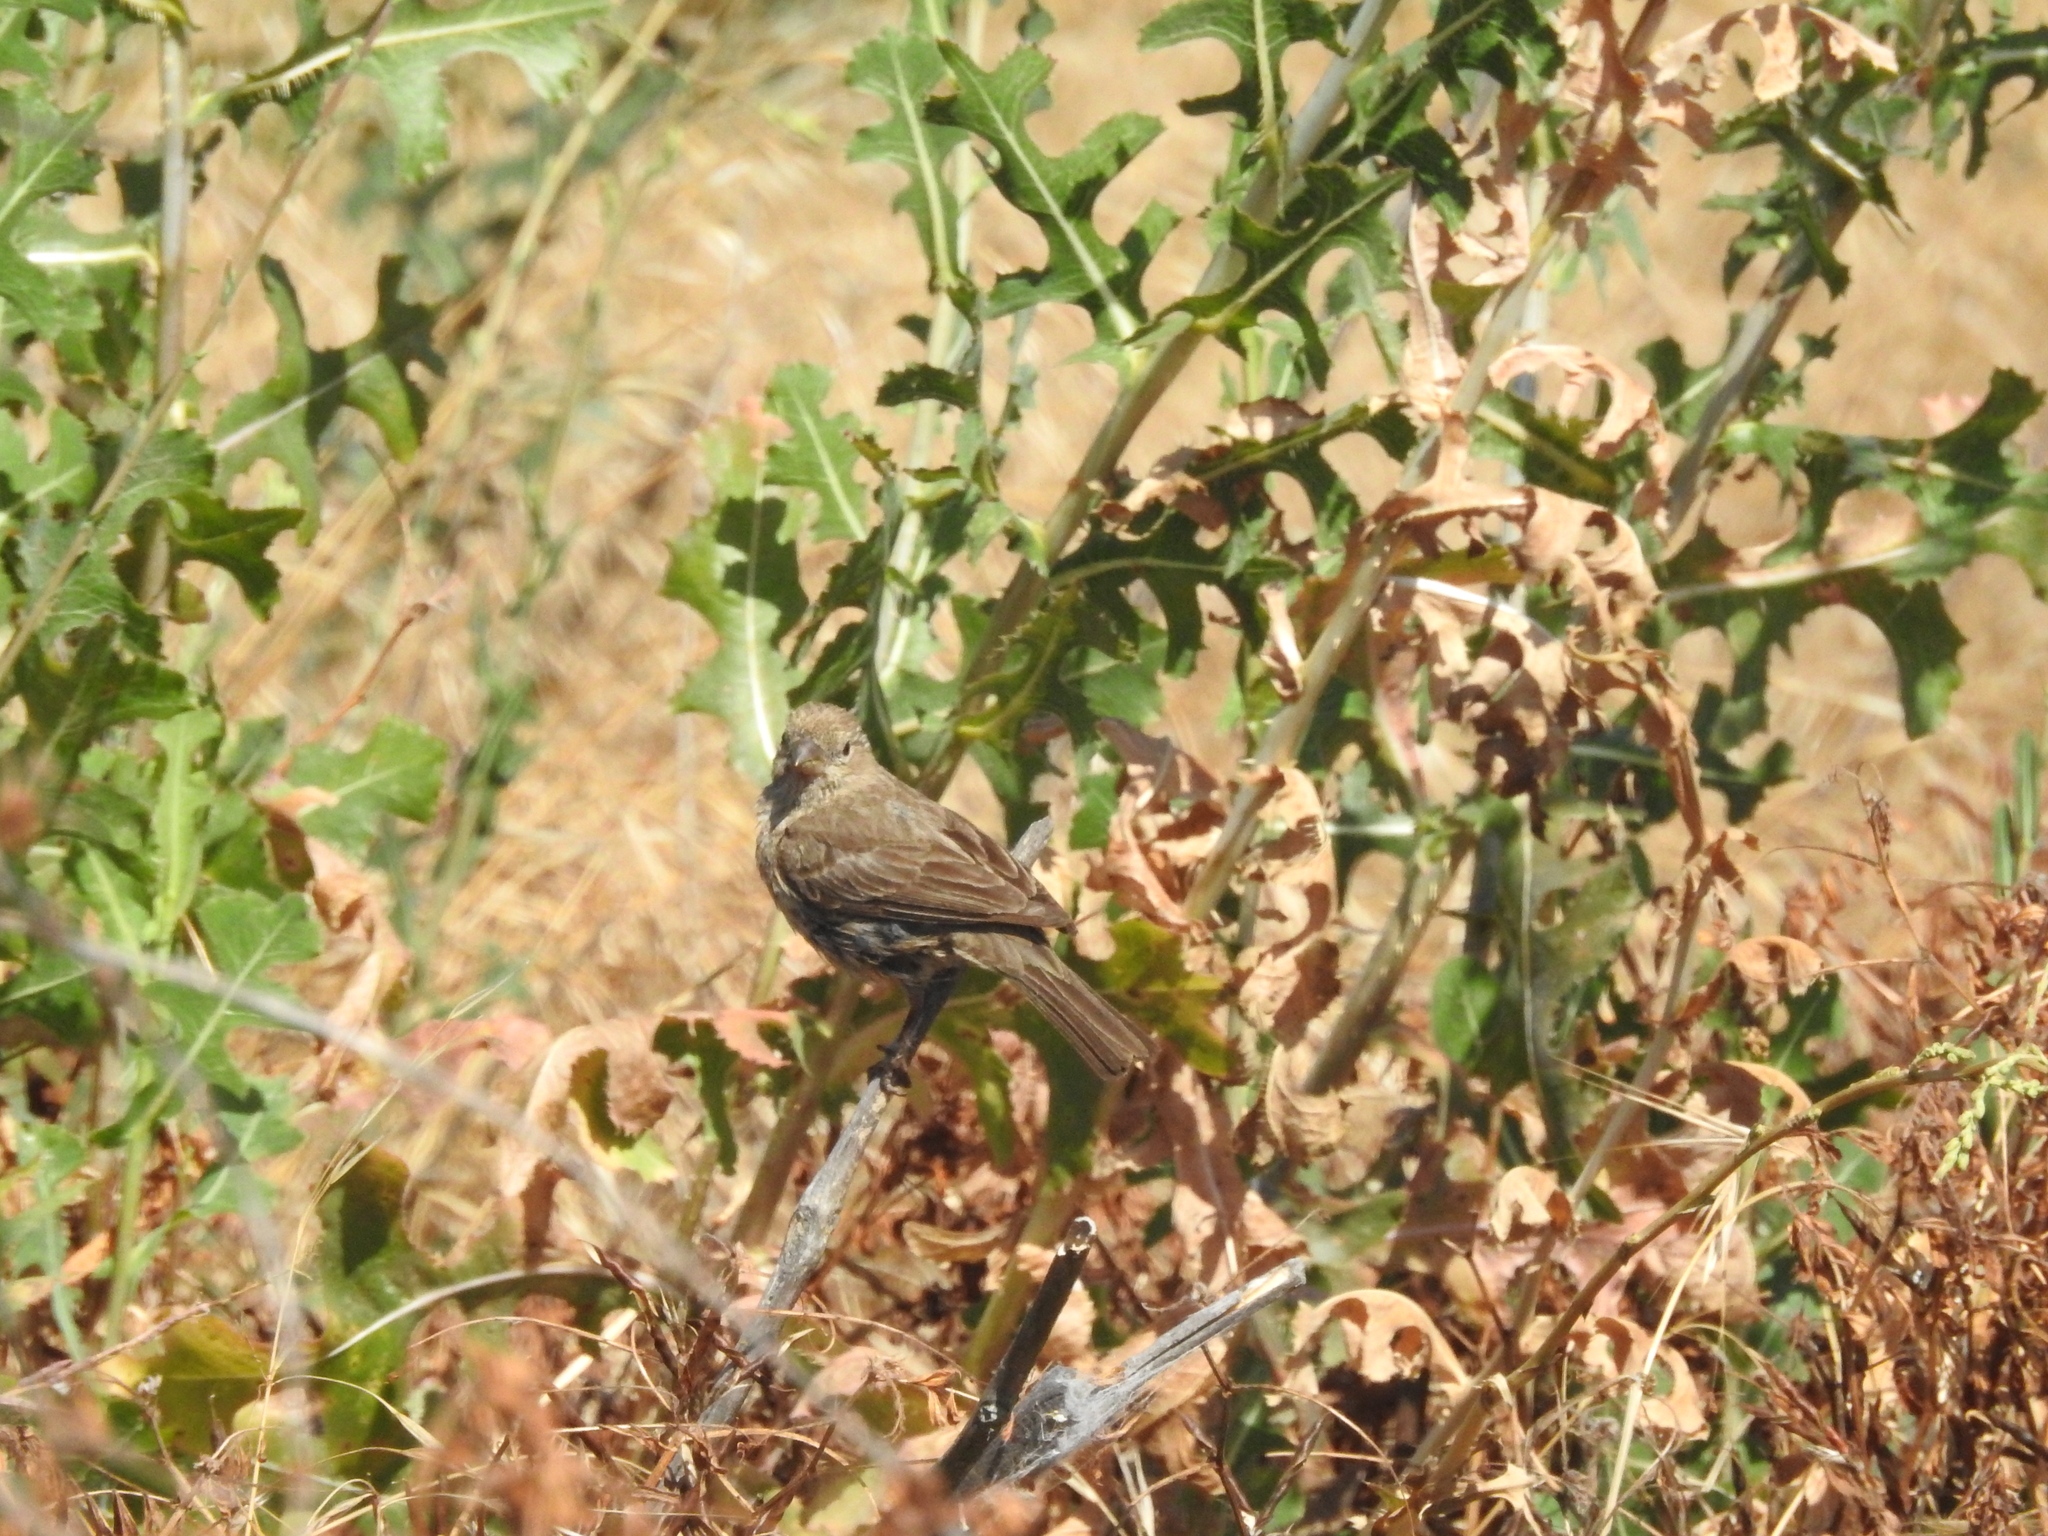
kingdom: Animalia
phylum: Chordata
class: Aves
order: Passeriformes
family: Fringillidae
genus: Haemorhous
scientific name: Haemorhous mexicanus
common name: House finch
